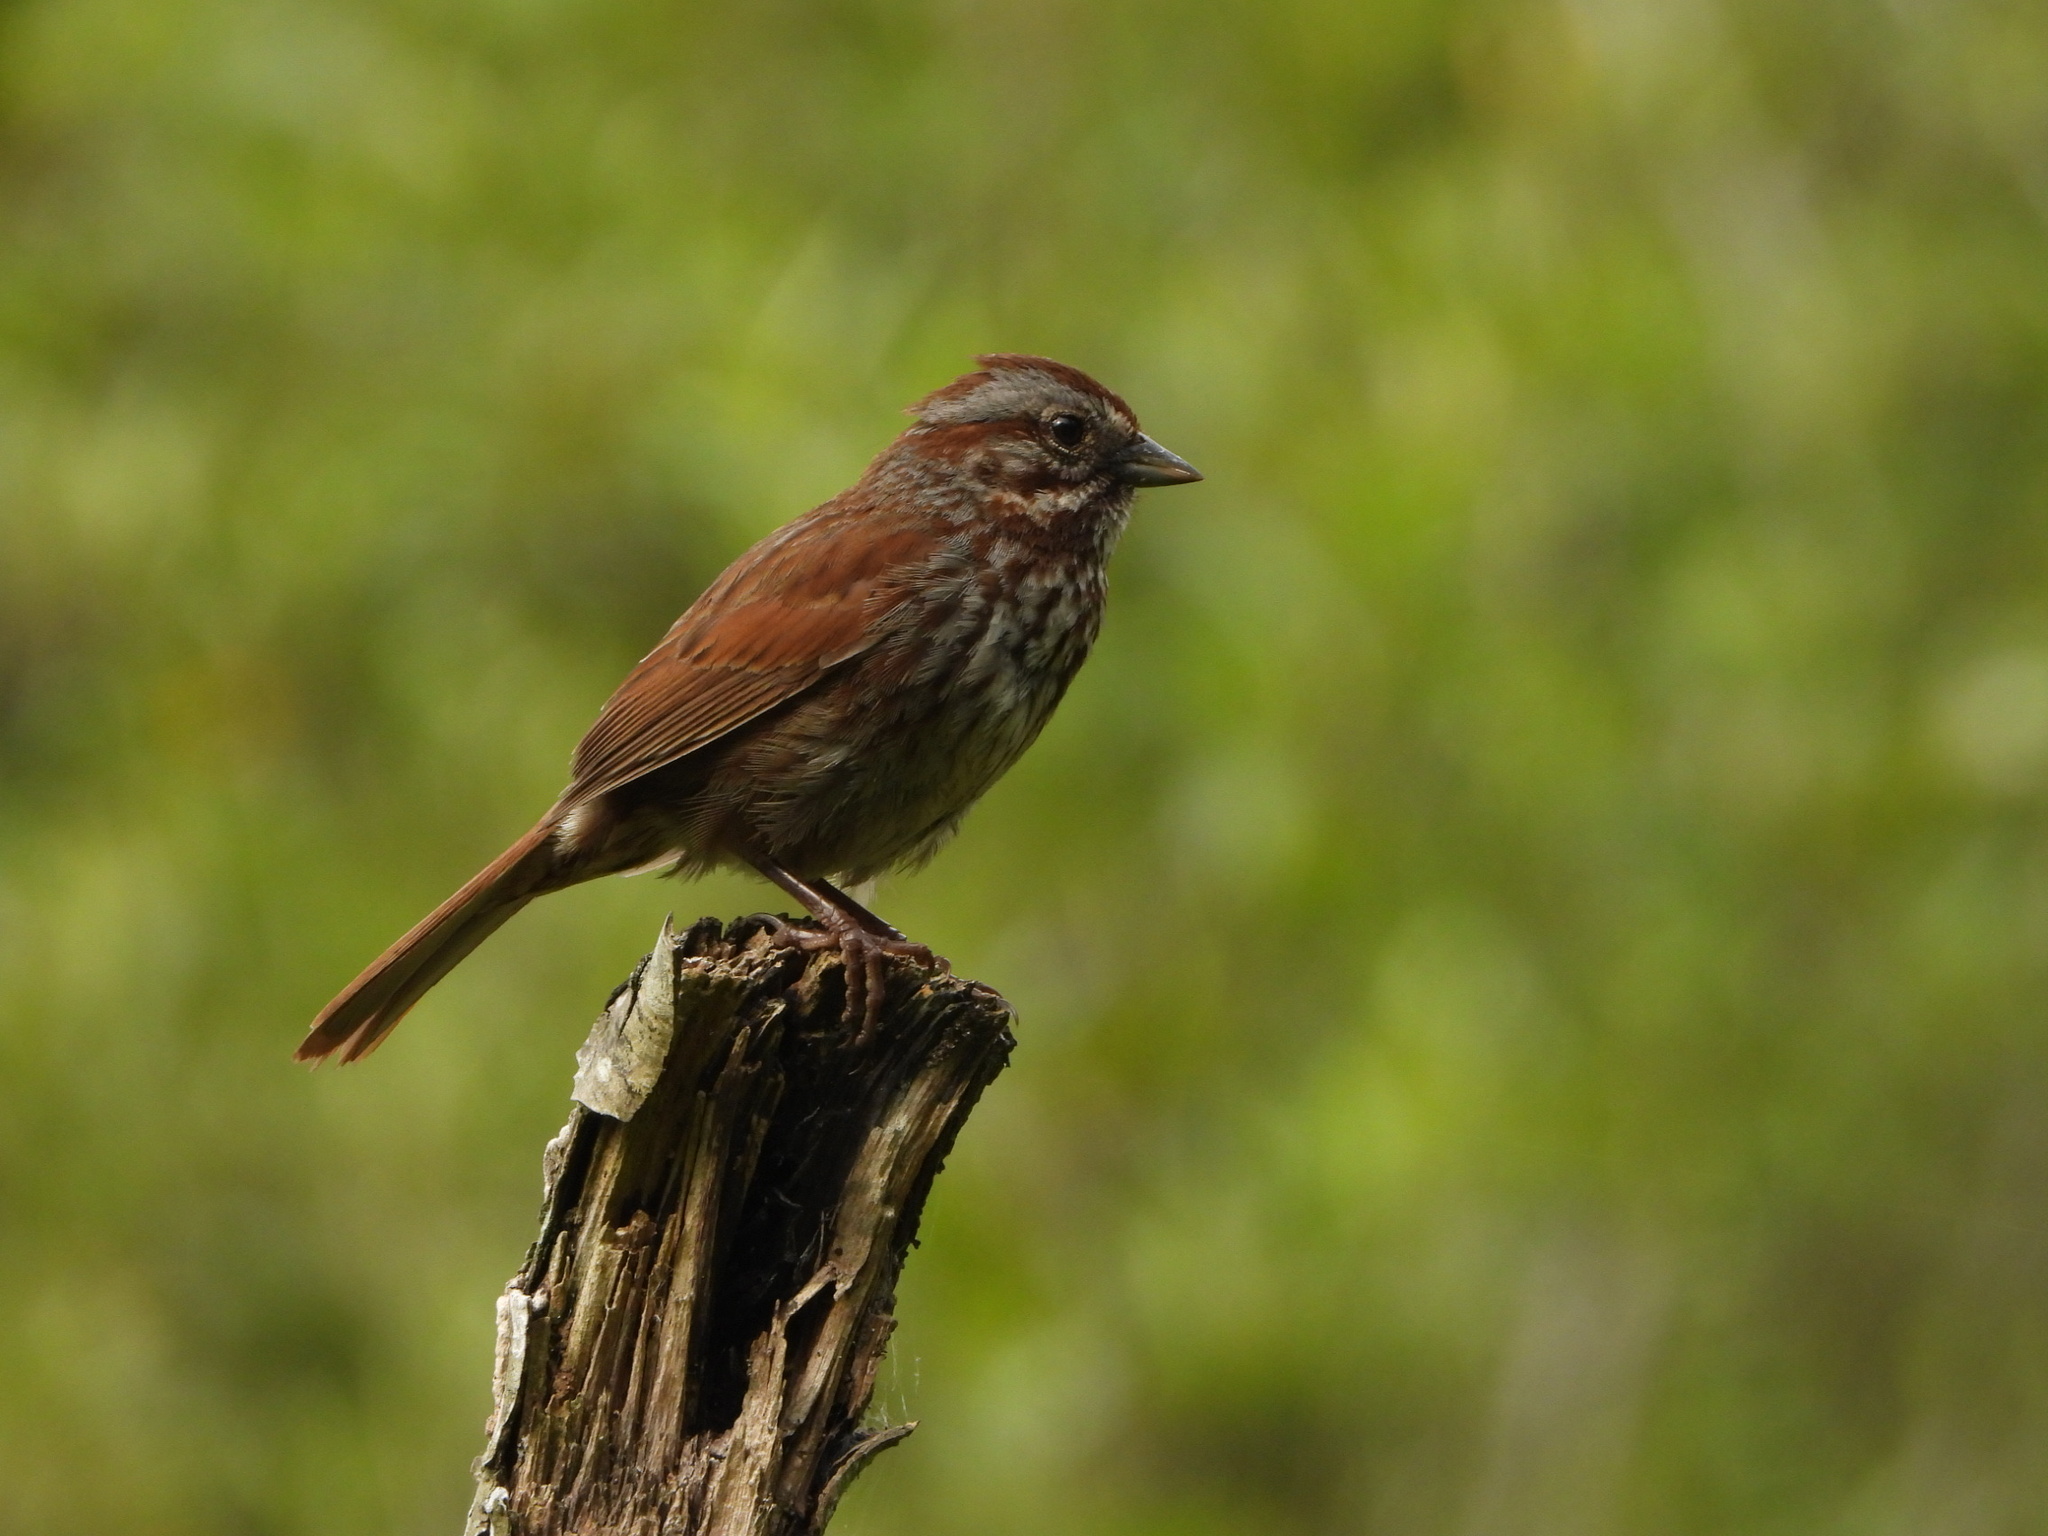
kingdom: Animalia
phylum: Chordata
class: Aves
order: Passeriformes
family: Passerellidae
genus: Melospiza
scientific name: Melospiza melodia
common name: Song sparrow
